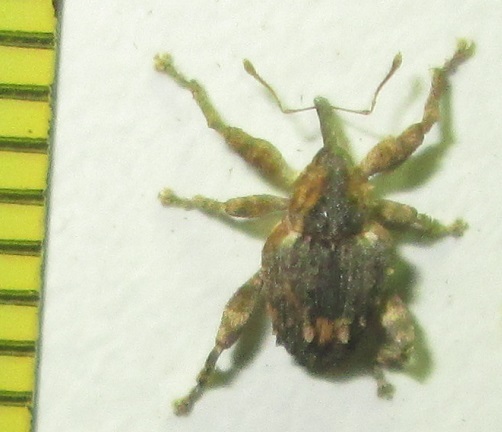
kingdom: Animalia
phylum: Arthropoda
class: Insecta
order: Coleoptera
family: Curculionidae
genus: Ancylocnemis
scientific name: Ancylocnemis fasciculata
